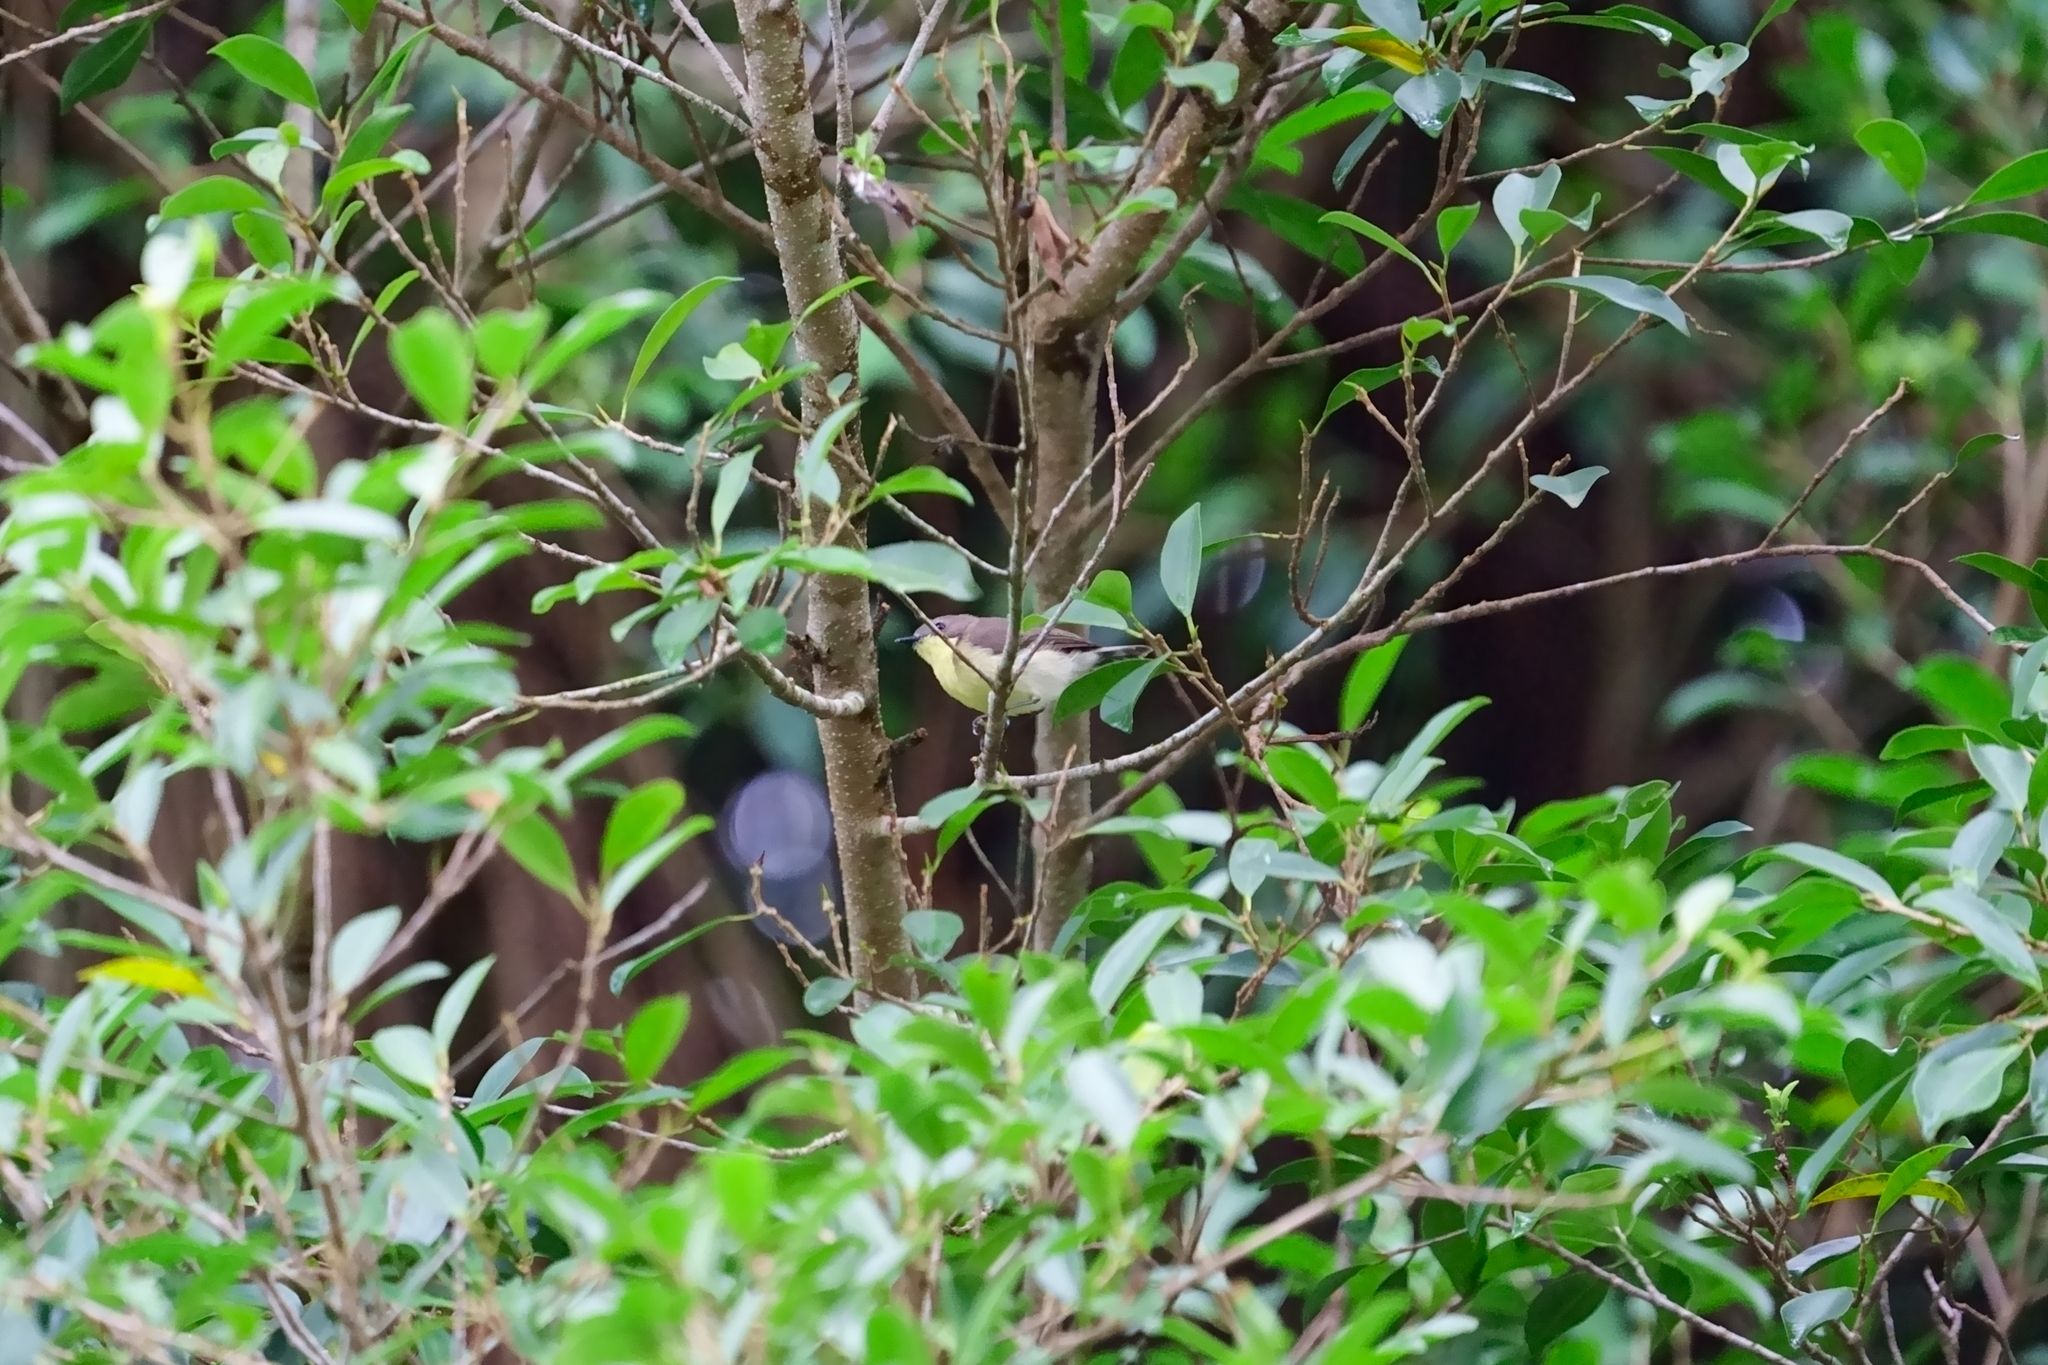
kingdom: Animalia
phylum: Chordata
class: Aves
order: Passeriformes
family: Acanthizidae
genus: Gerygone
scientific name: Gerygone sulphurea
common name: Golden-bellied gerygone
